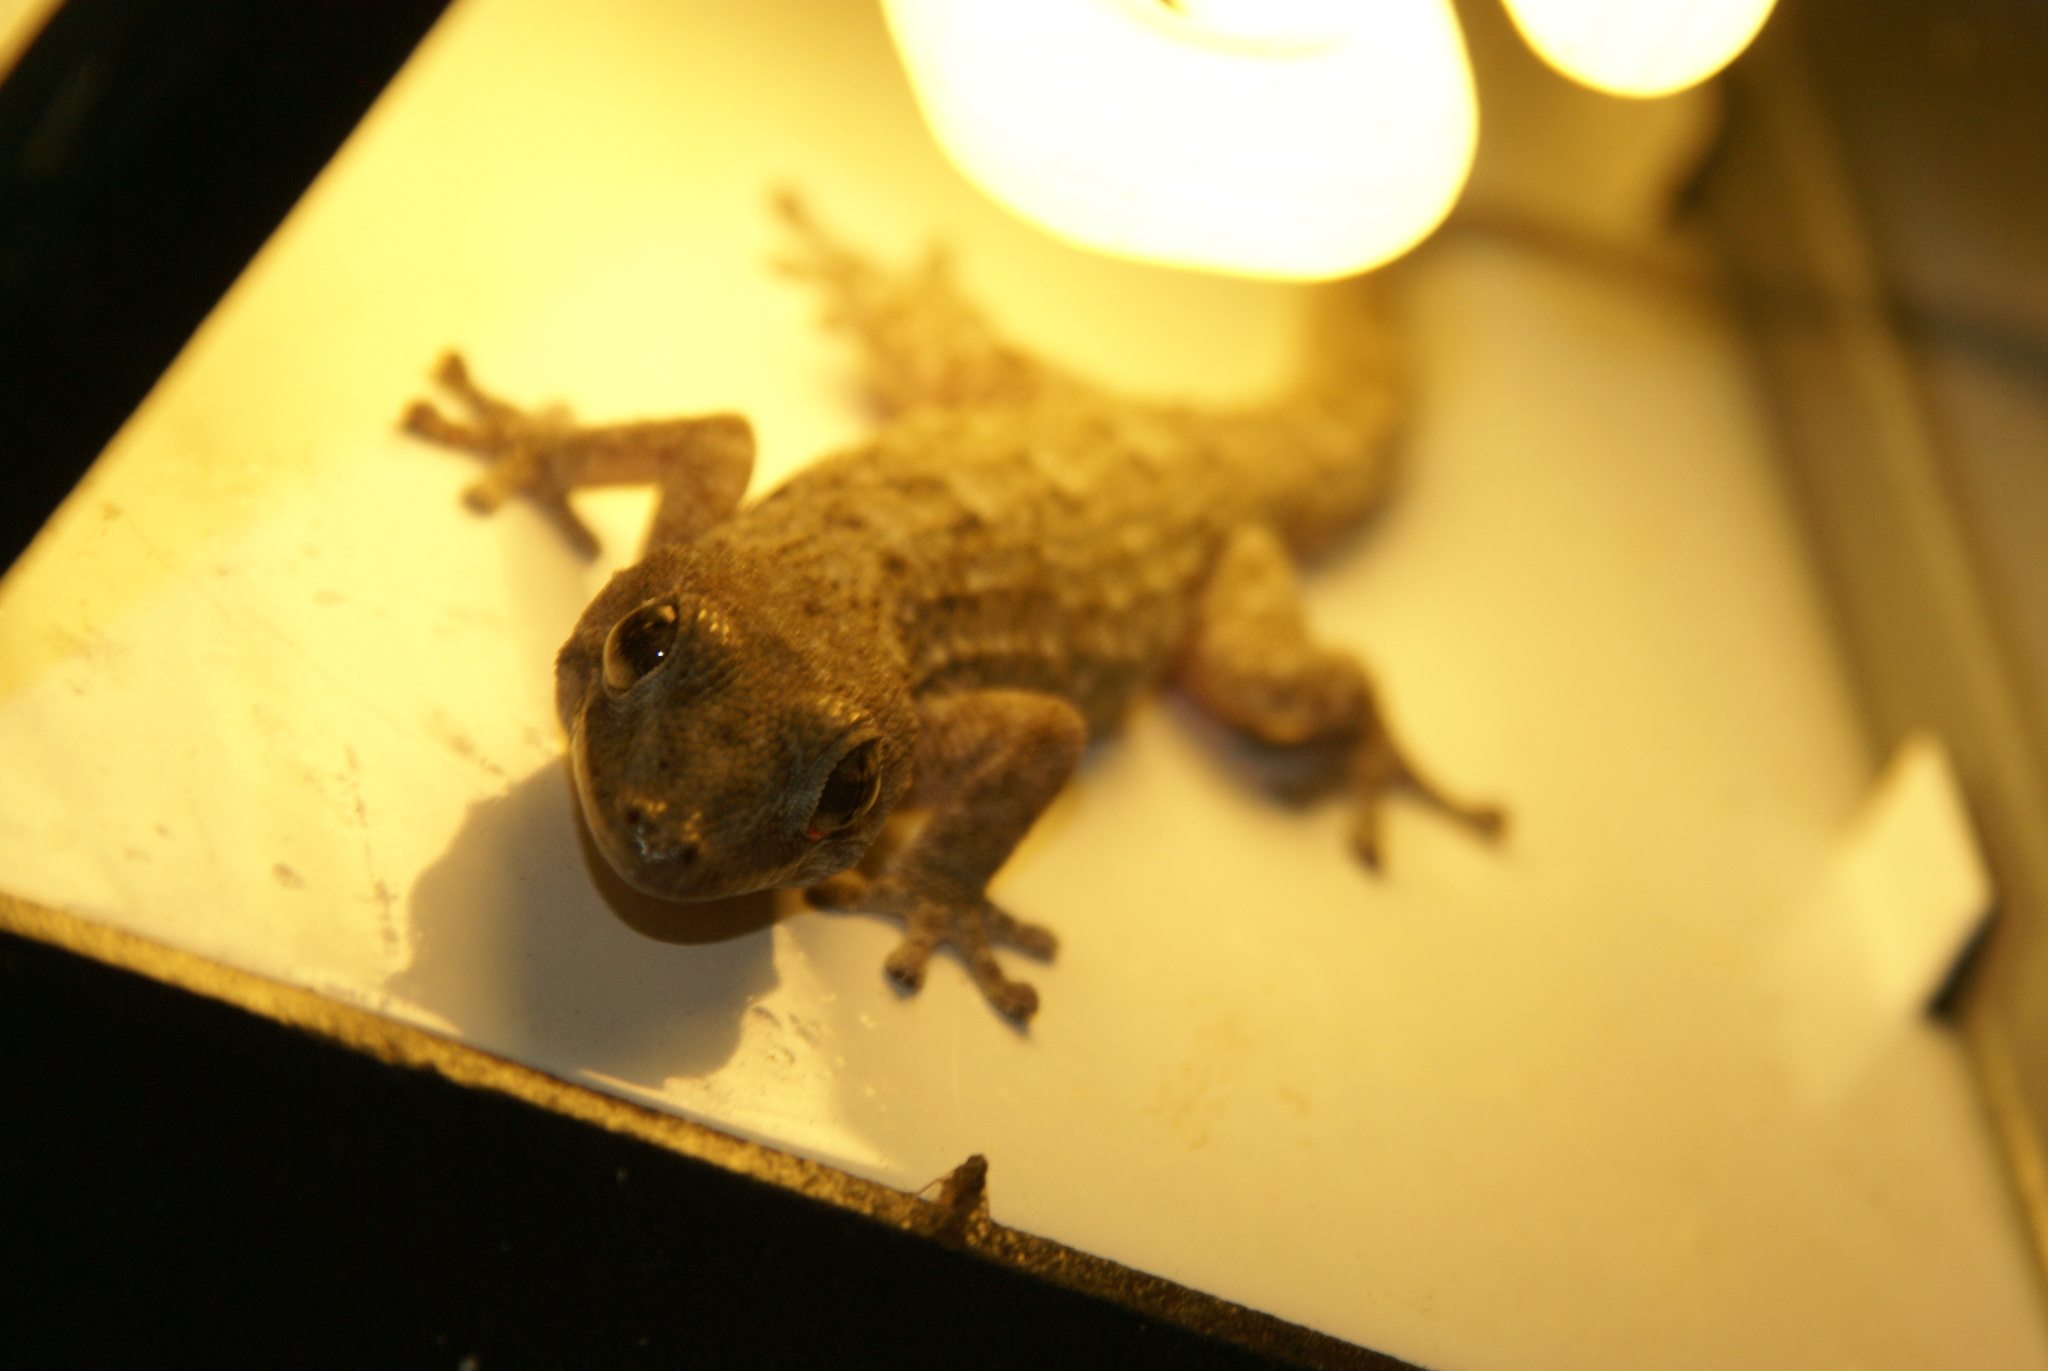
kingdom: Animalia
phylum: Chordata
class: Squamata
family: Phyllodactylidae
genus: Tarentola
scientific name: Tarentola delalandii
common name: Tenerife wall gecko
